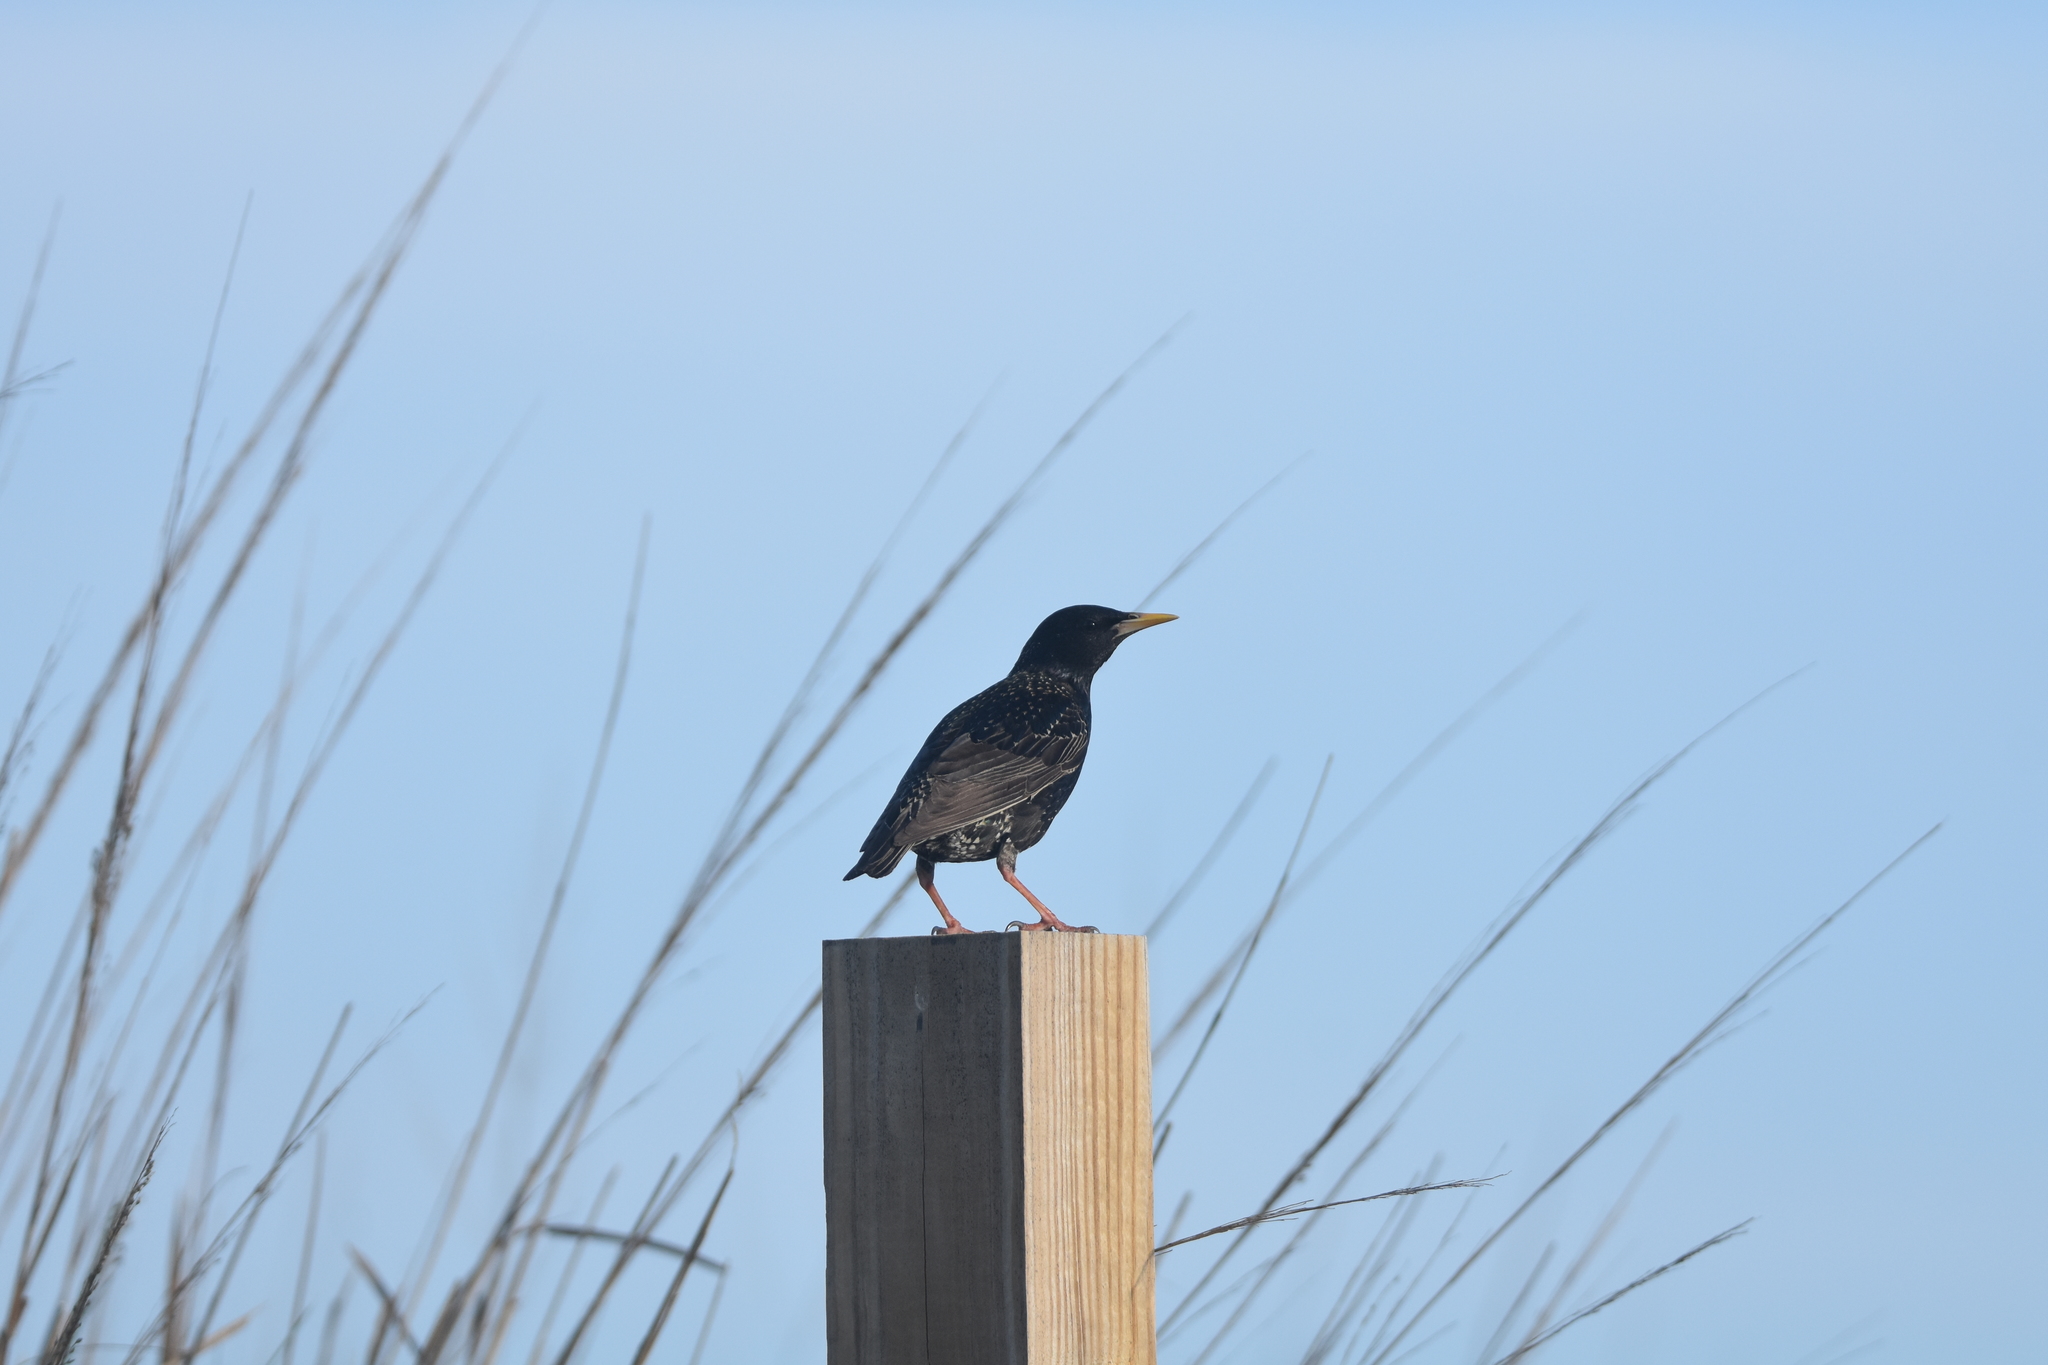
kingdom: Animalia
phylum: Chordata
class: Aves
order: Passeriformes
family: Sturnidae
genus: Sturnus
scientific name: Sturnus vulgaris
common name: Common starling
